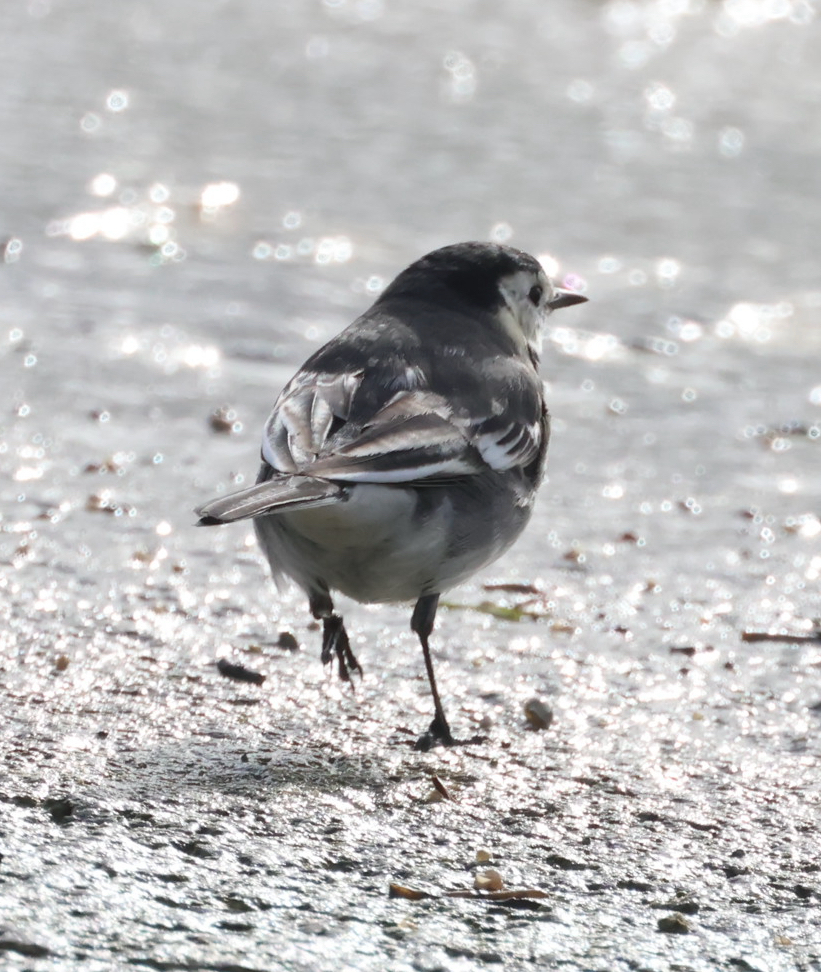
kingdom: Animalia
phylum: Chordata
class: Aves
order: Passeriformes
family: Motacillidae
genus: Motacilla
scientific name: Motacilla alba
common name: White wagtail
